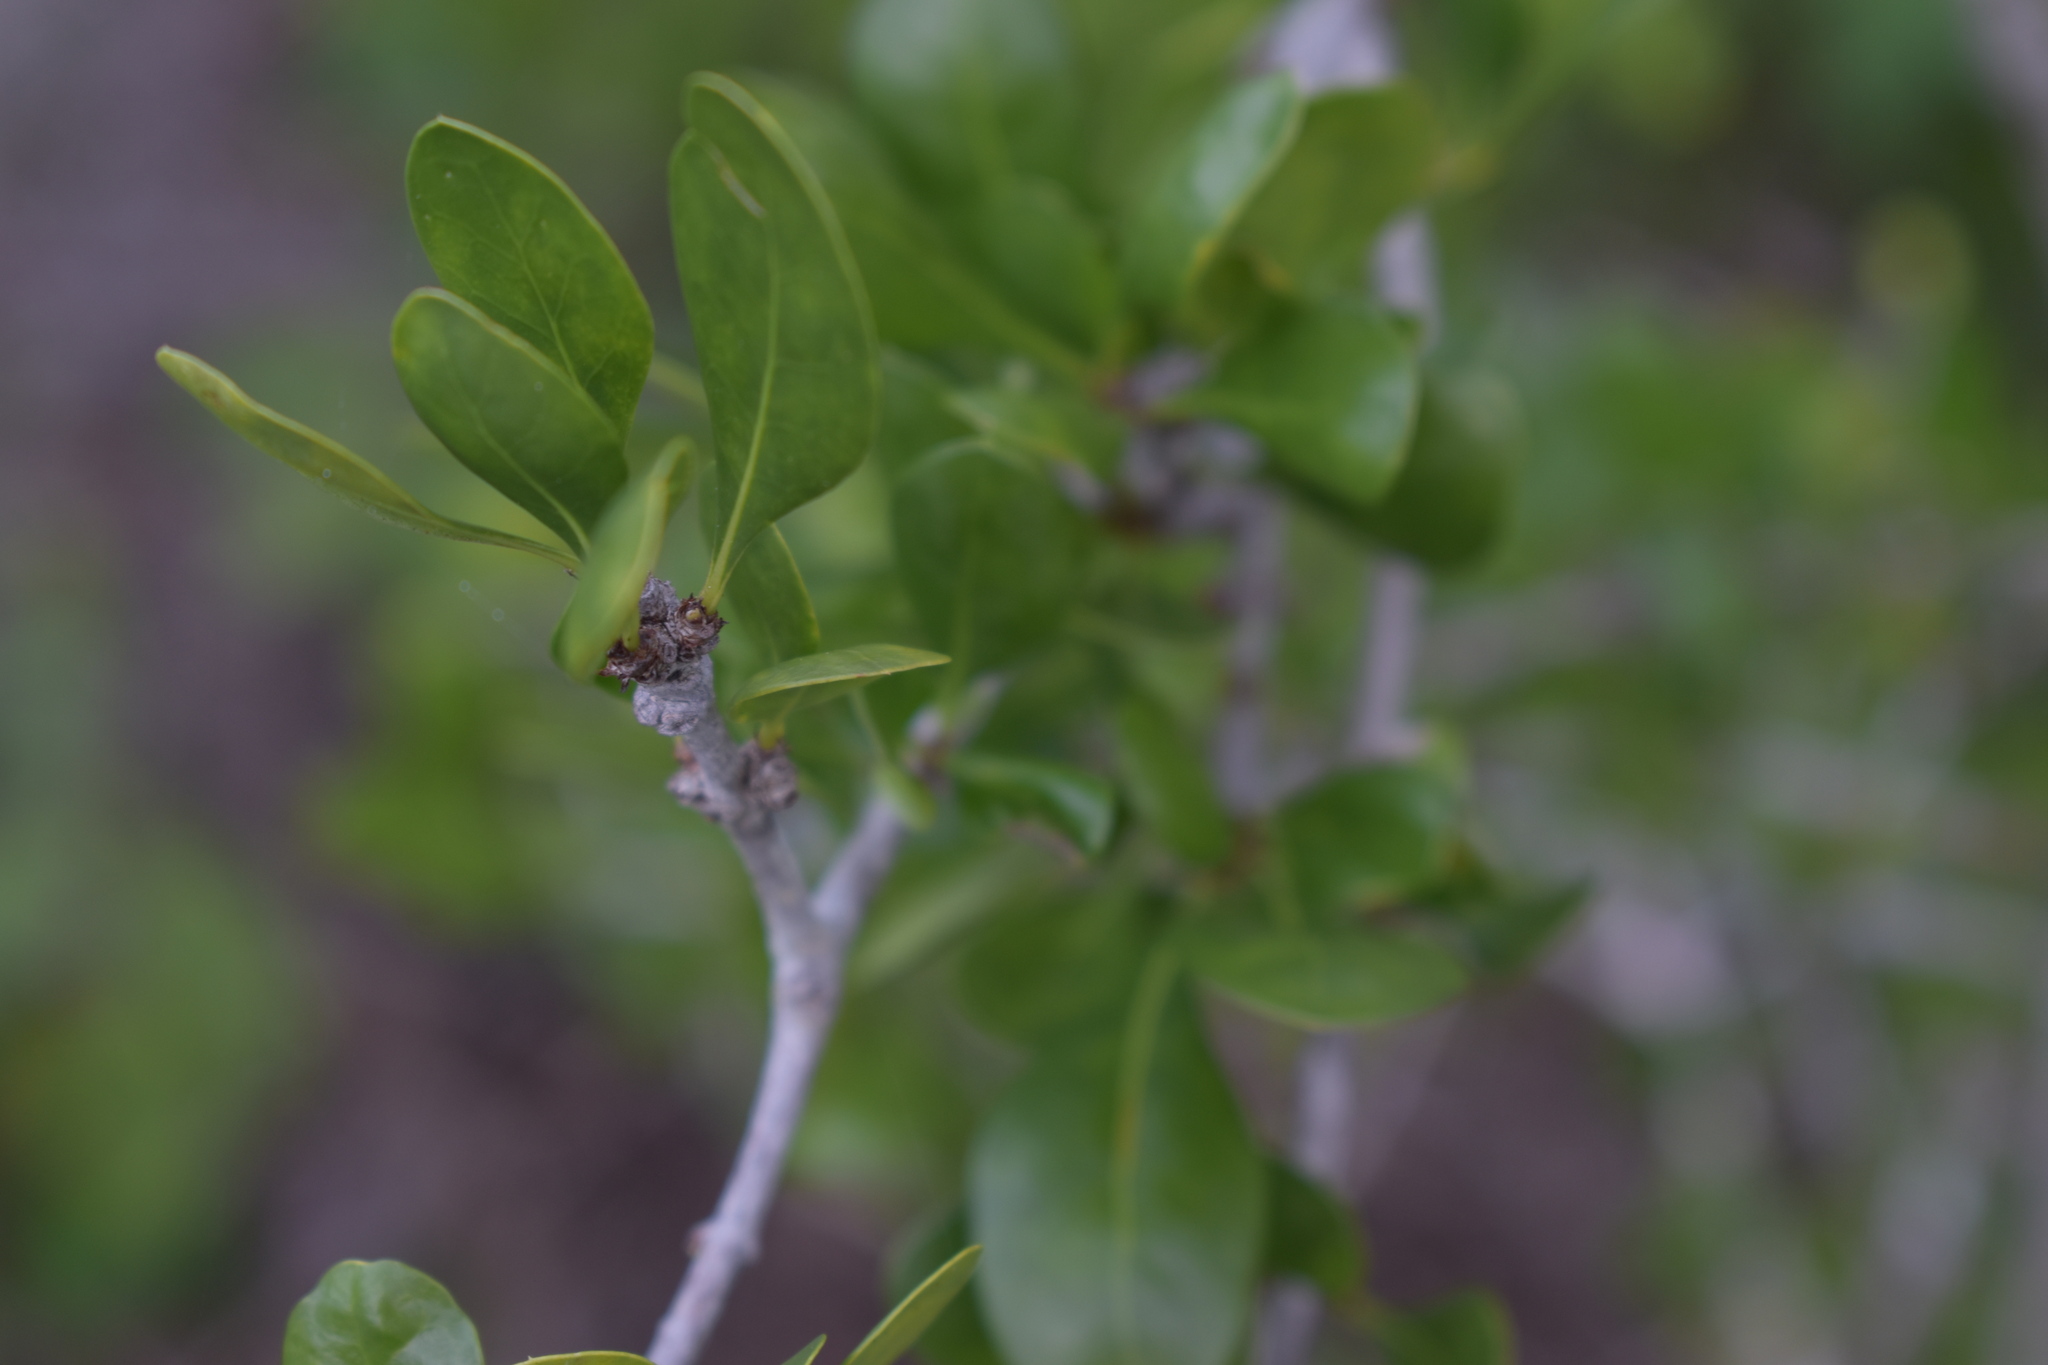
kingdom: Plantae
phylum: Tracheophyta
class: Magnoliopsida
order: Gentianales
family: Rubiaceae
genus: Randia
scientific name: Randia aculeata
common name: Inkberry
